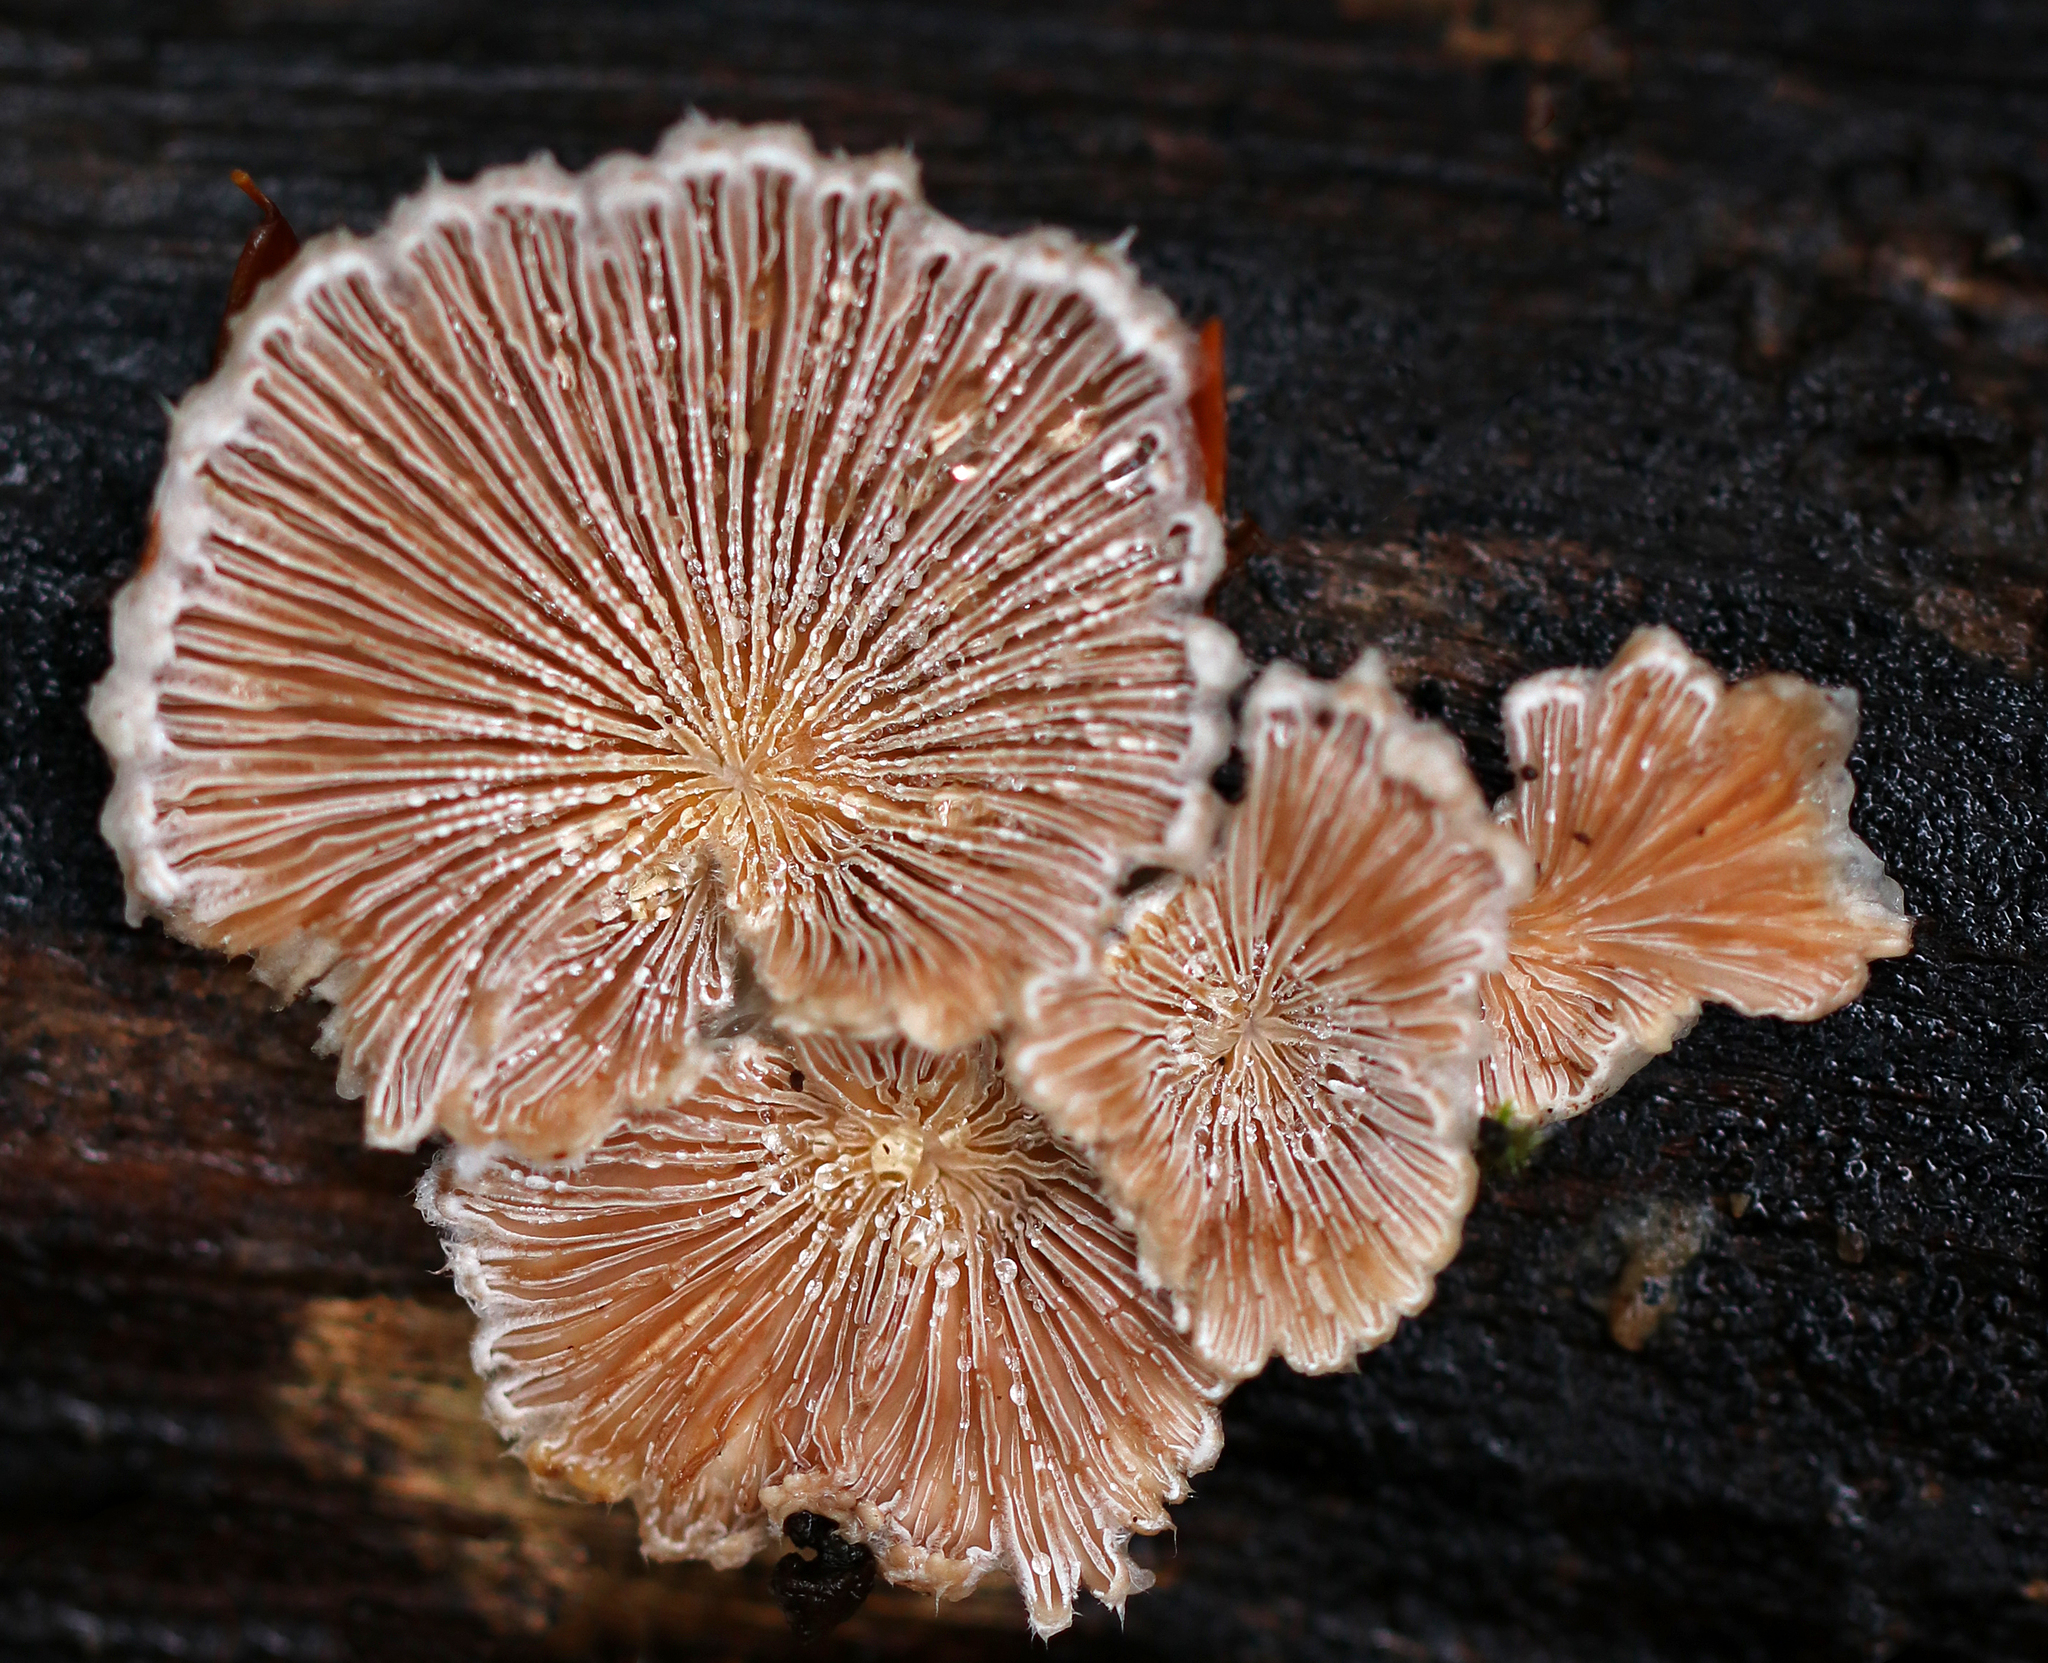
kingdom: Fungi
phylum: Basidiomycota
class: Agaricomycetes
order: Agaricales
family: Schizophyllaceae
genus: Schizophyllum
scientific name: Schizophyllum commune
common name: Common porecrust
